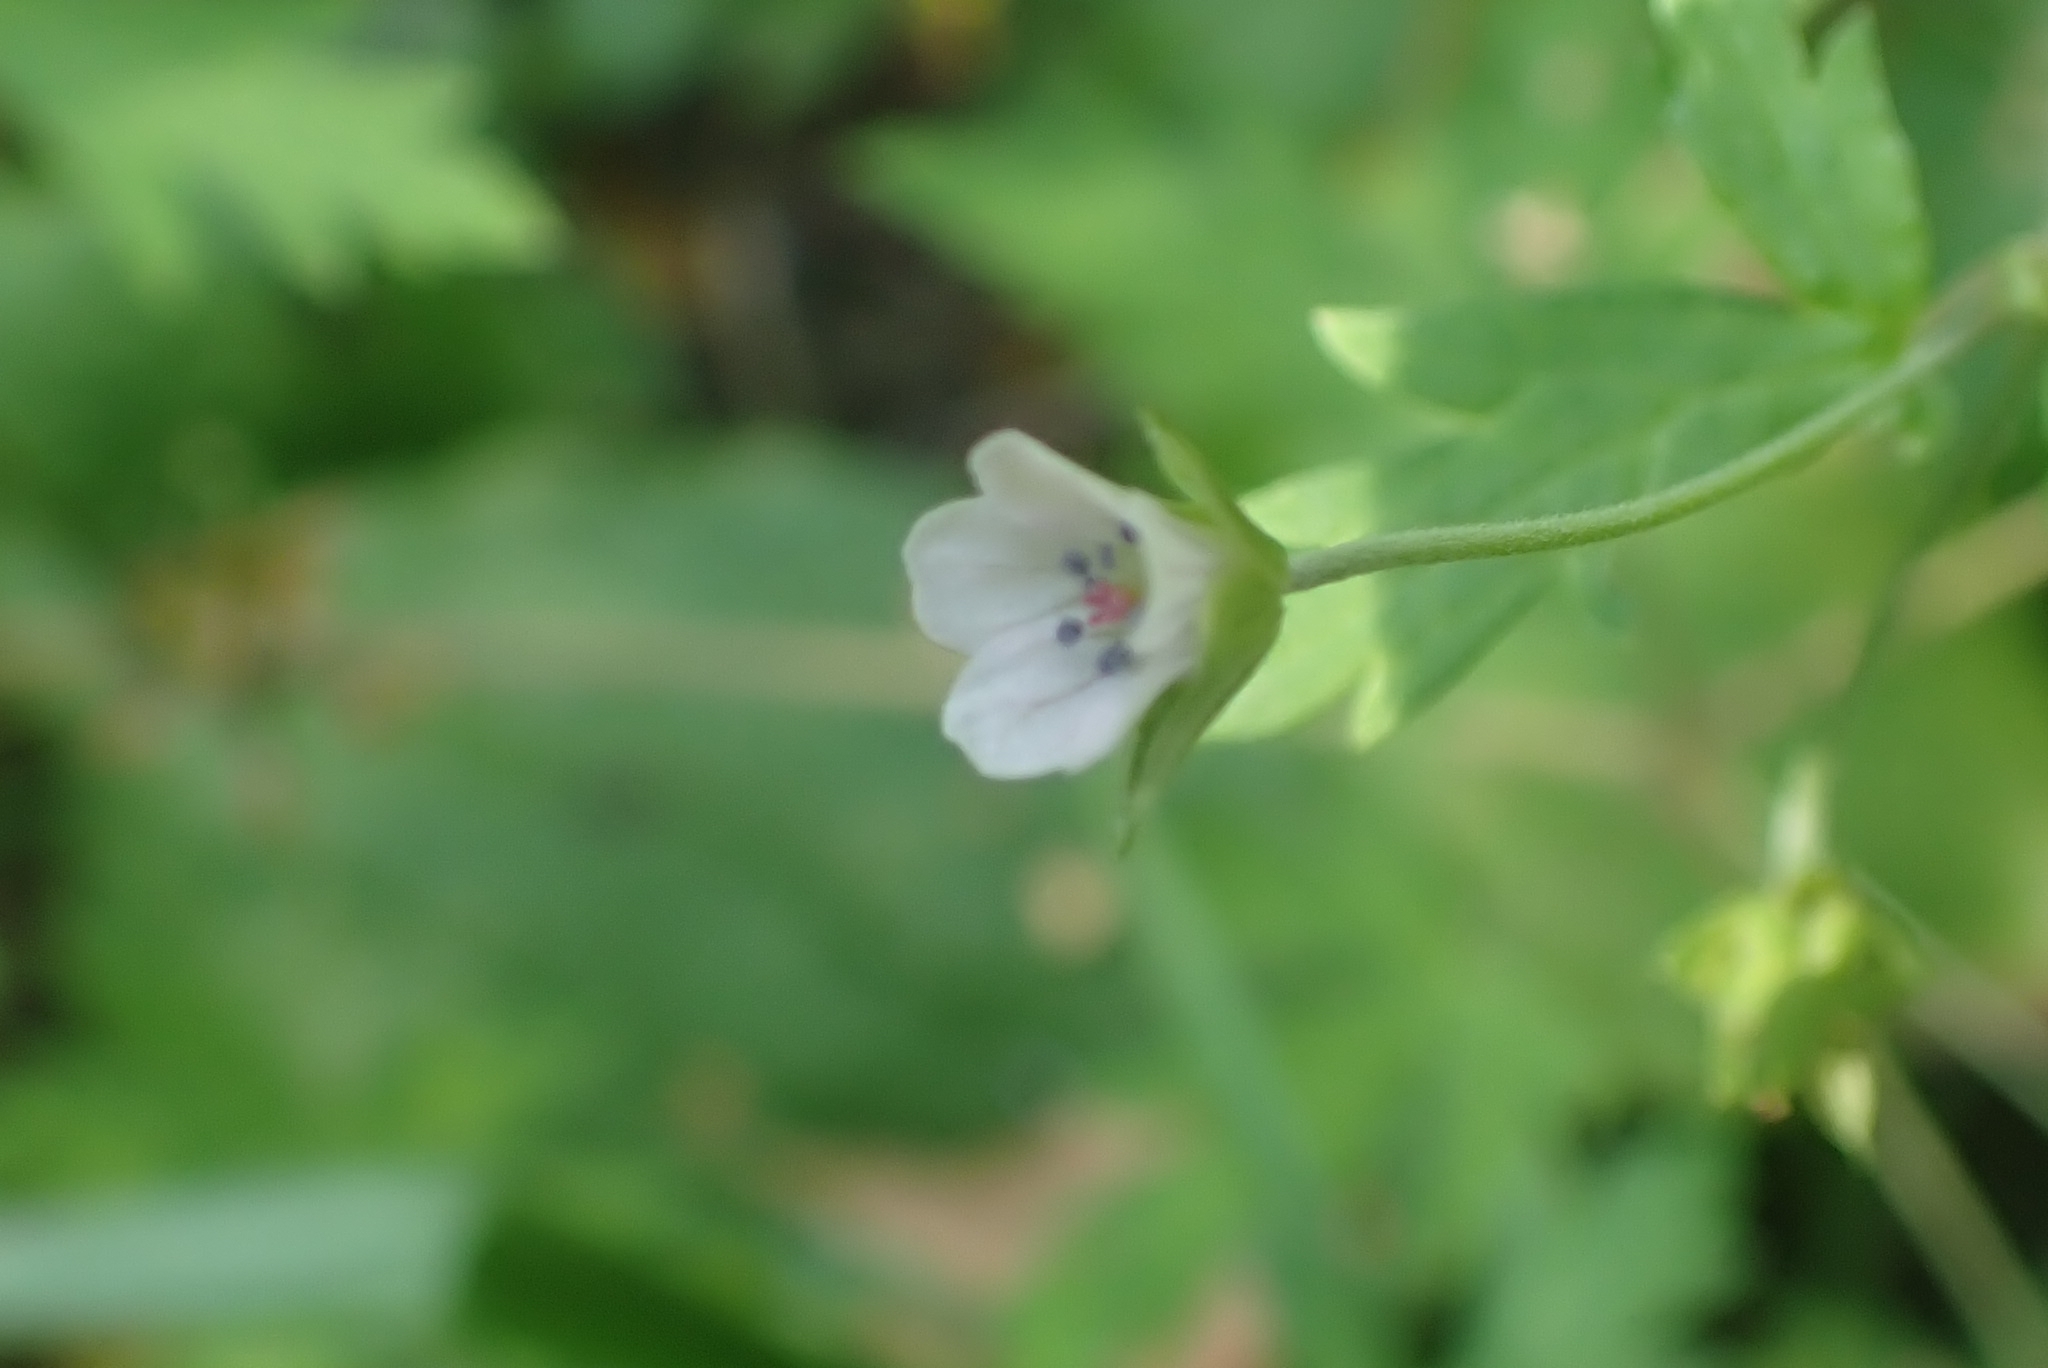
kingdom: Plantae
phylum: Tracheophyta
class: Magnoliopsida
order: Geraniales
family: Geraniaceae
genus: Geranium
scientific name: Geranium sibiricum
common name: Siberian crane's-bill
